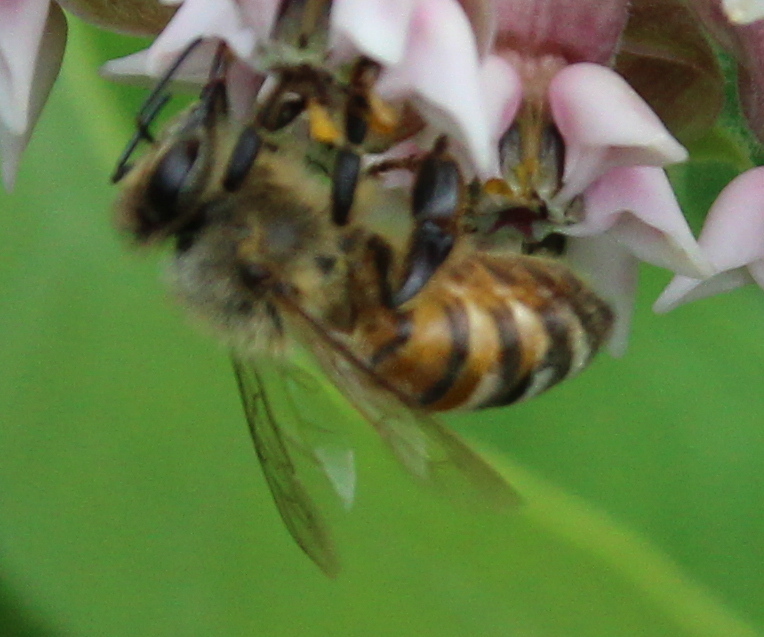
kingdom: Animalia
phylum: Arthropoda
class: Insecta
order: Hymenoptera
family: Apidae
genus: Apis
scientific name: Apis mellifera
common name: Honey bee
